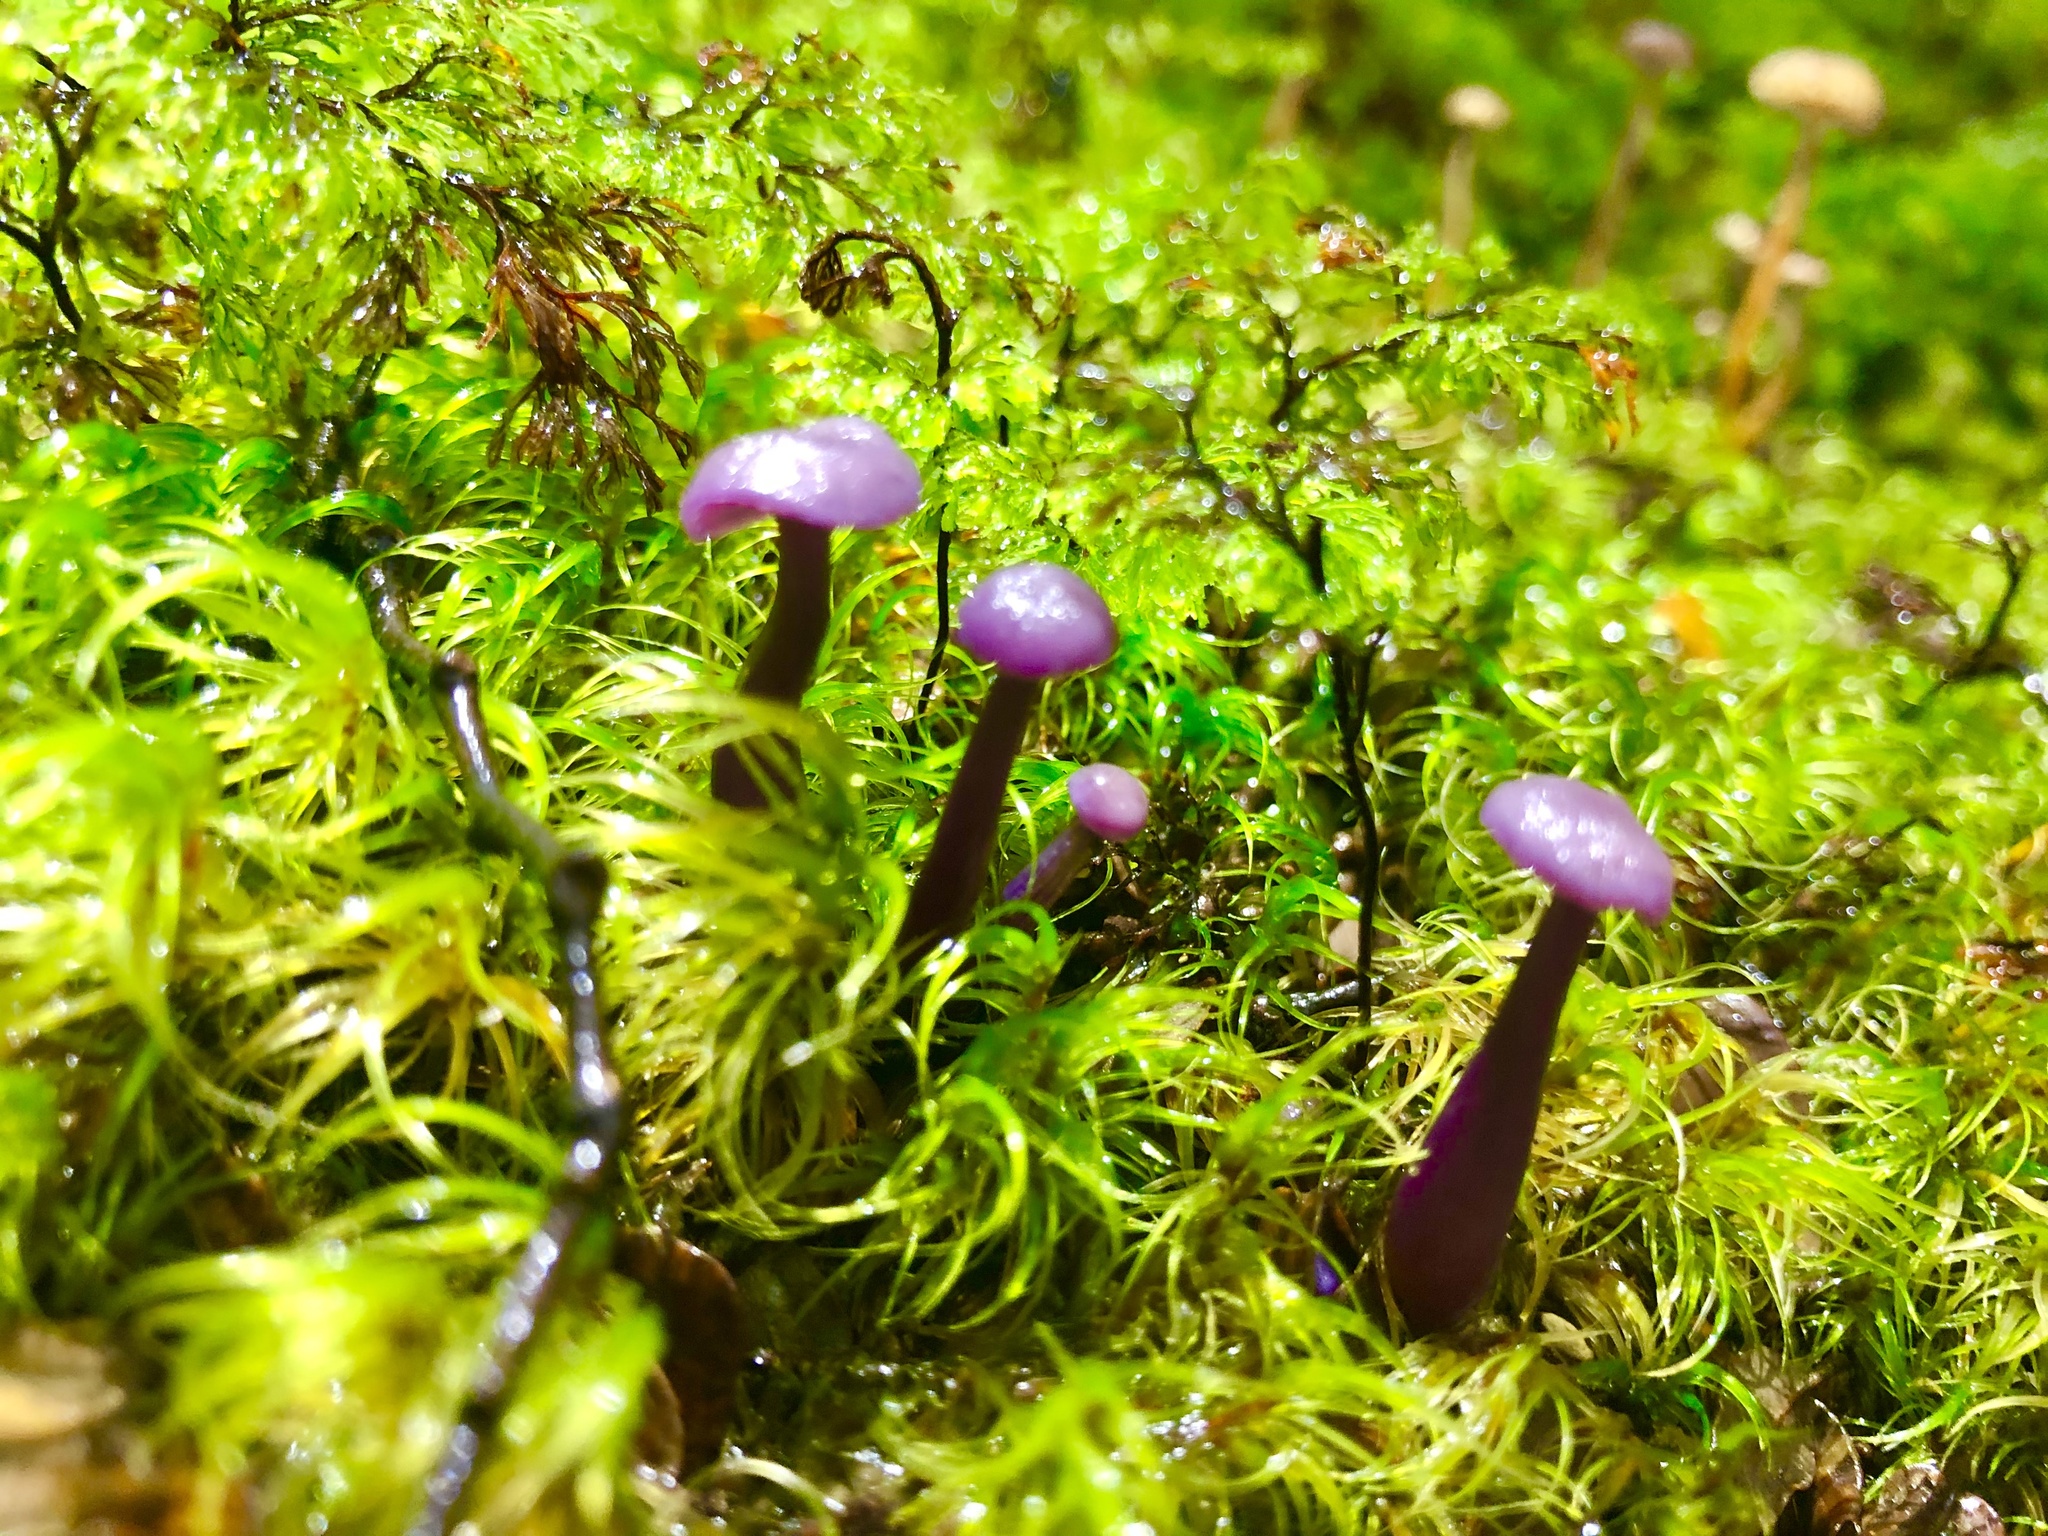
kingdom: Fungi
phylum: Basidiomycota
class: Agaricomycetes
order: Agaricales
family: Hydnangiaceae
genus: Laccaria
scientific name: Laccaria masoniae
